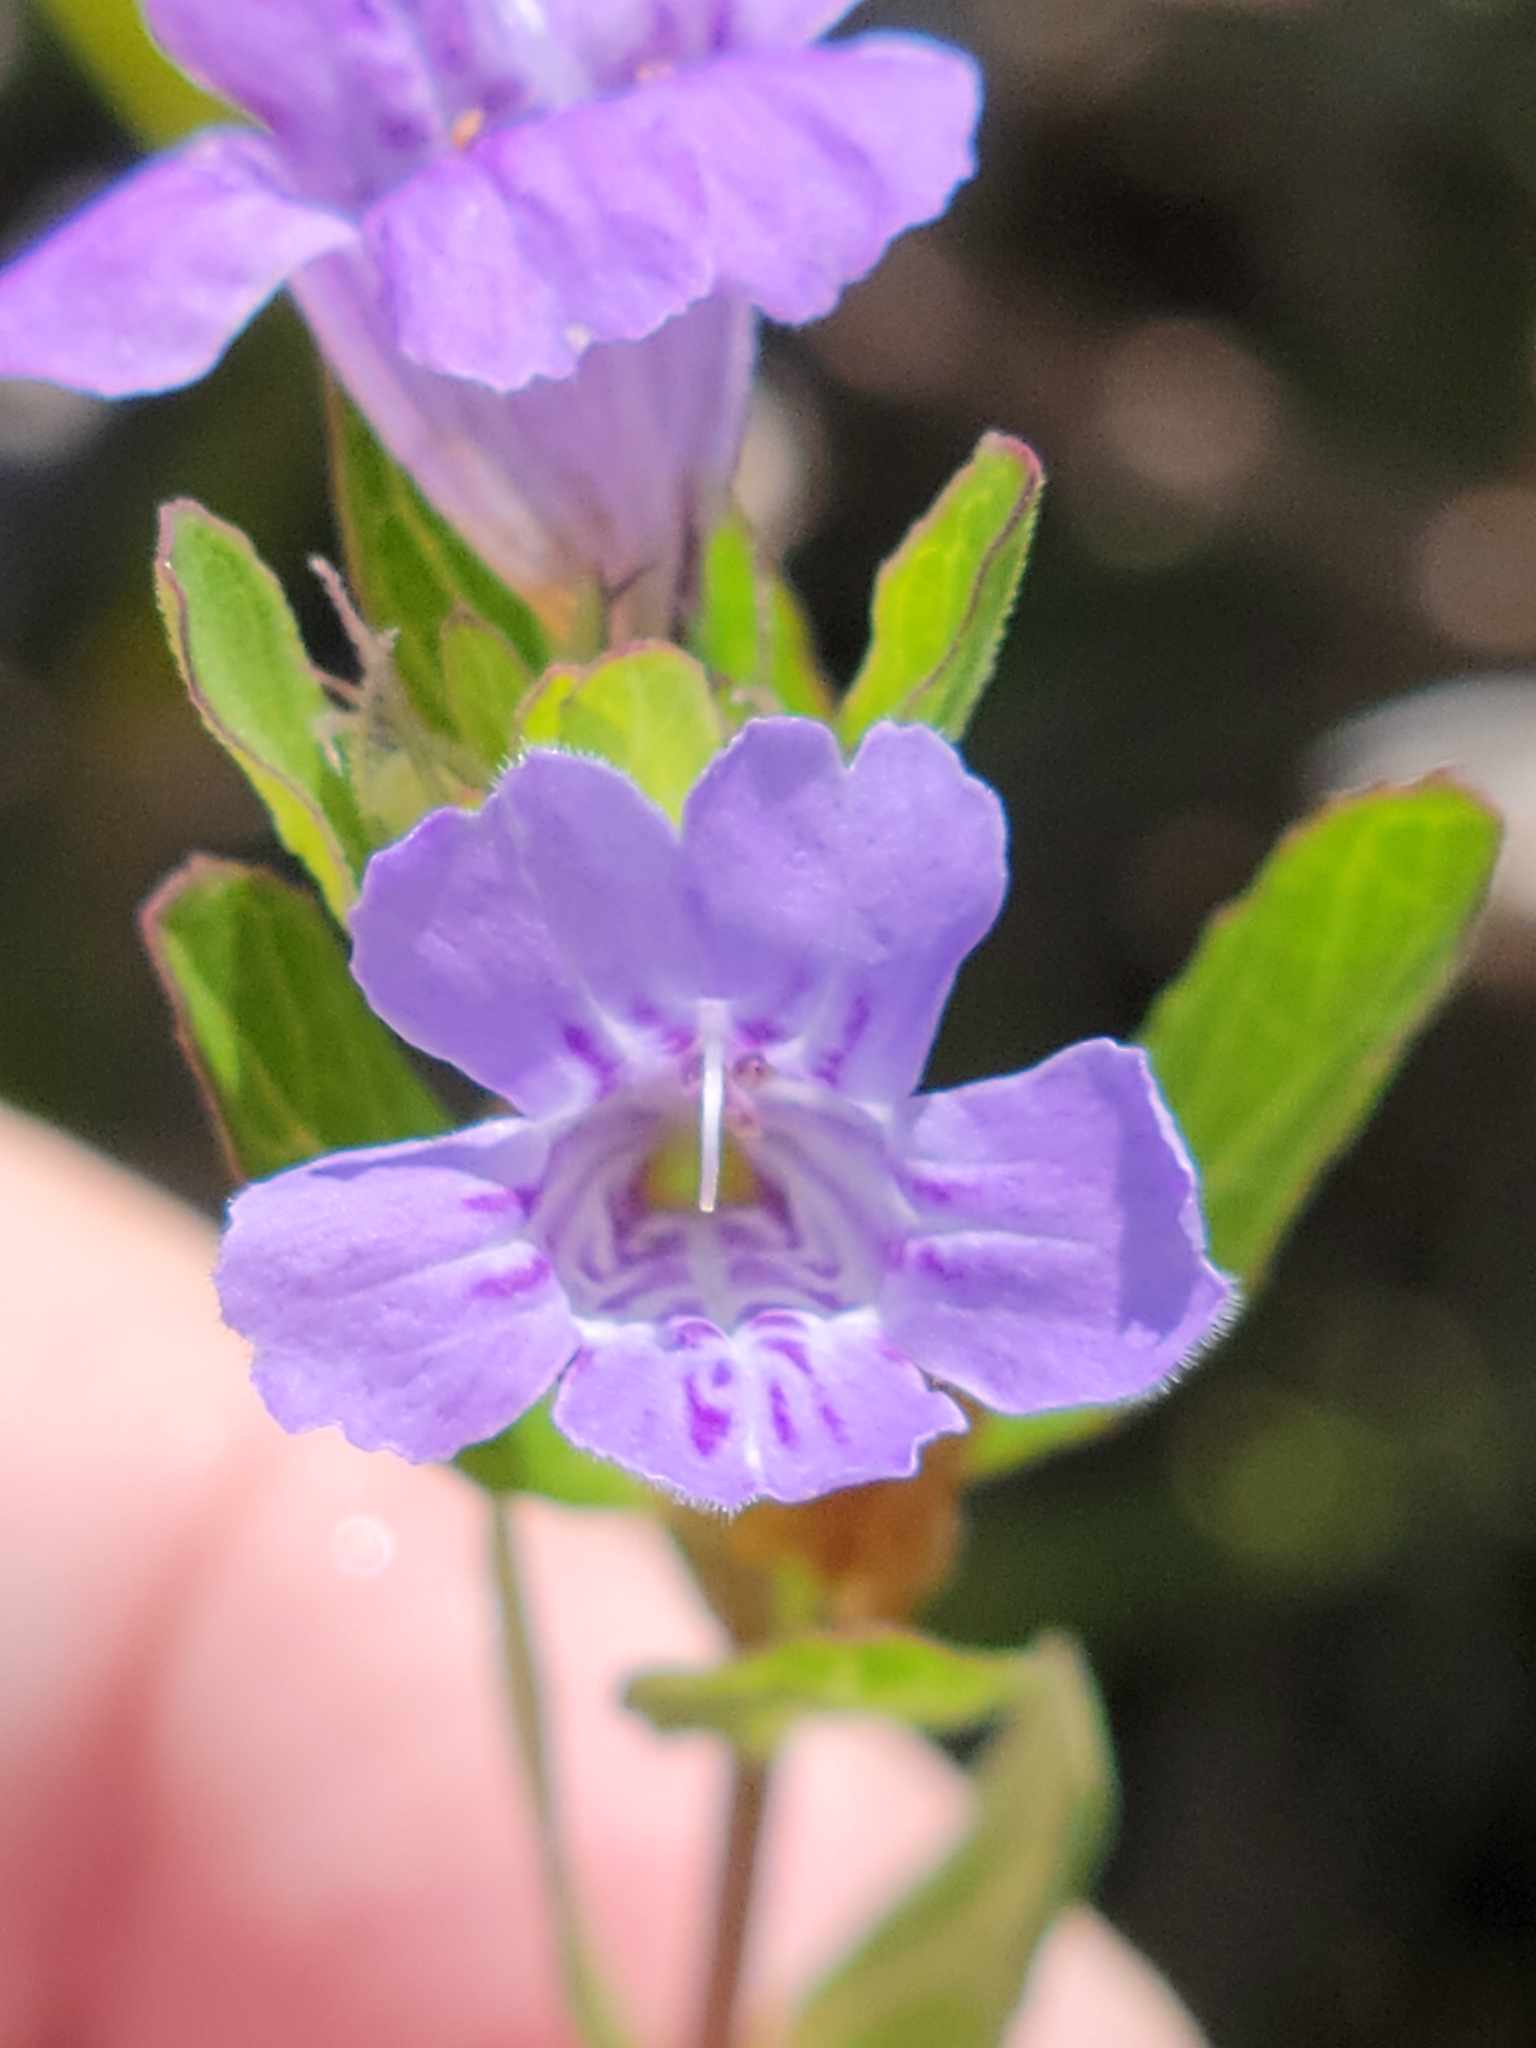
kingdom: Plantae
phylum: Tracheophyta
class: Magnoliopsida
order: Lamiales
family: Acanthaceae
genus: Dyschoriste
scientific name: Dyschoriste oblongifolia
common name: Blue twinflower
